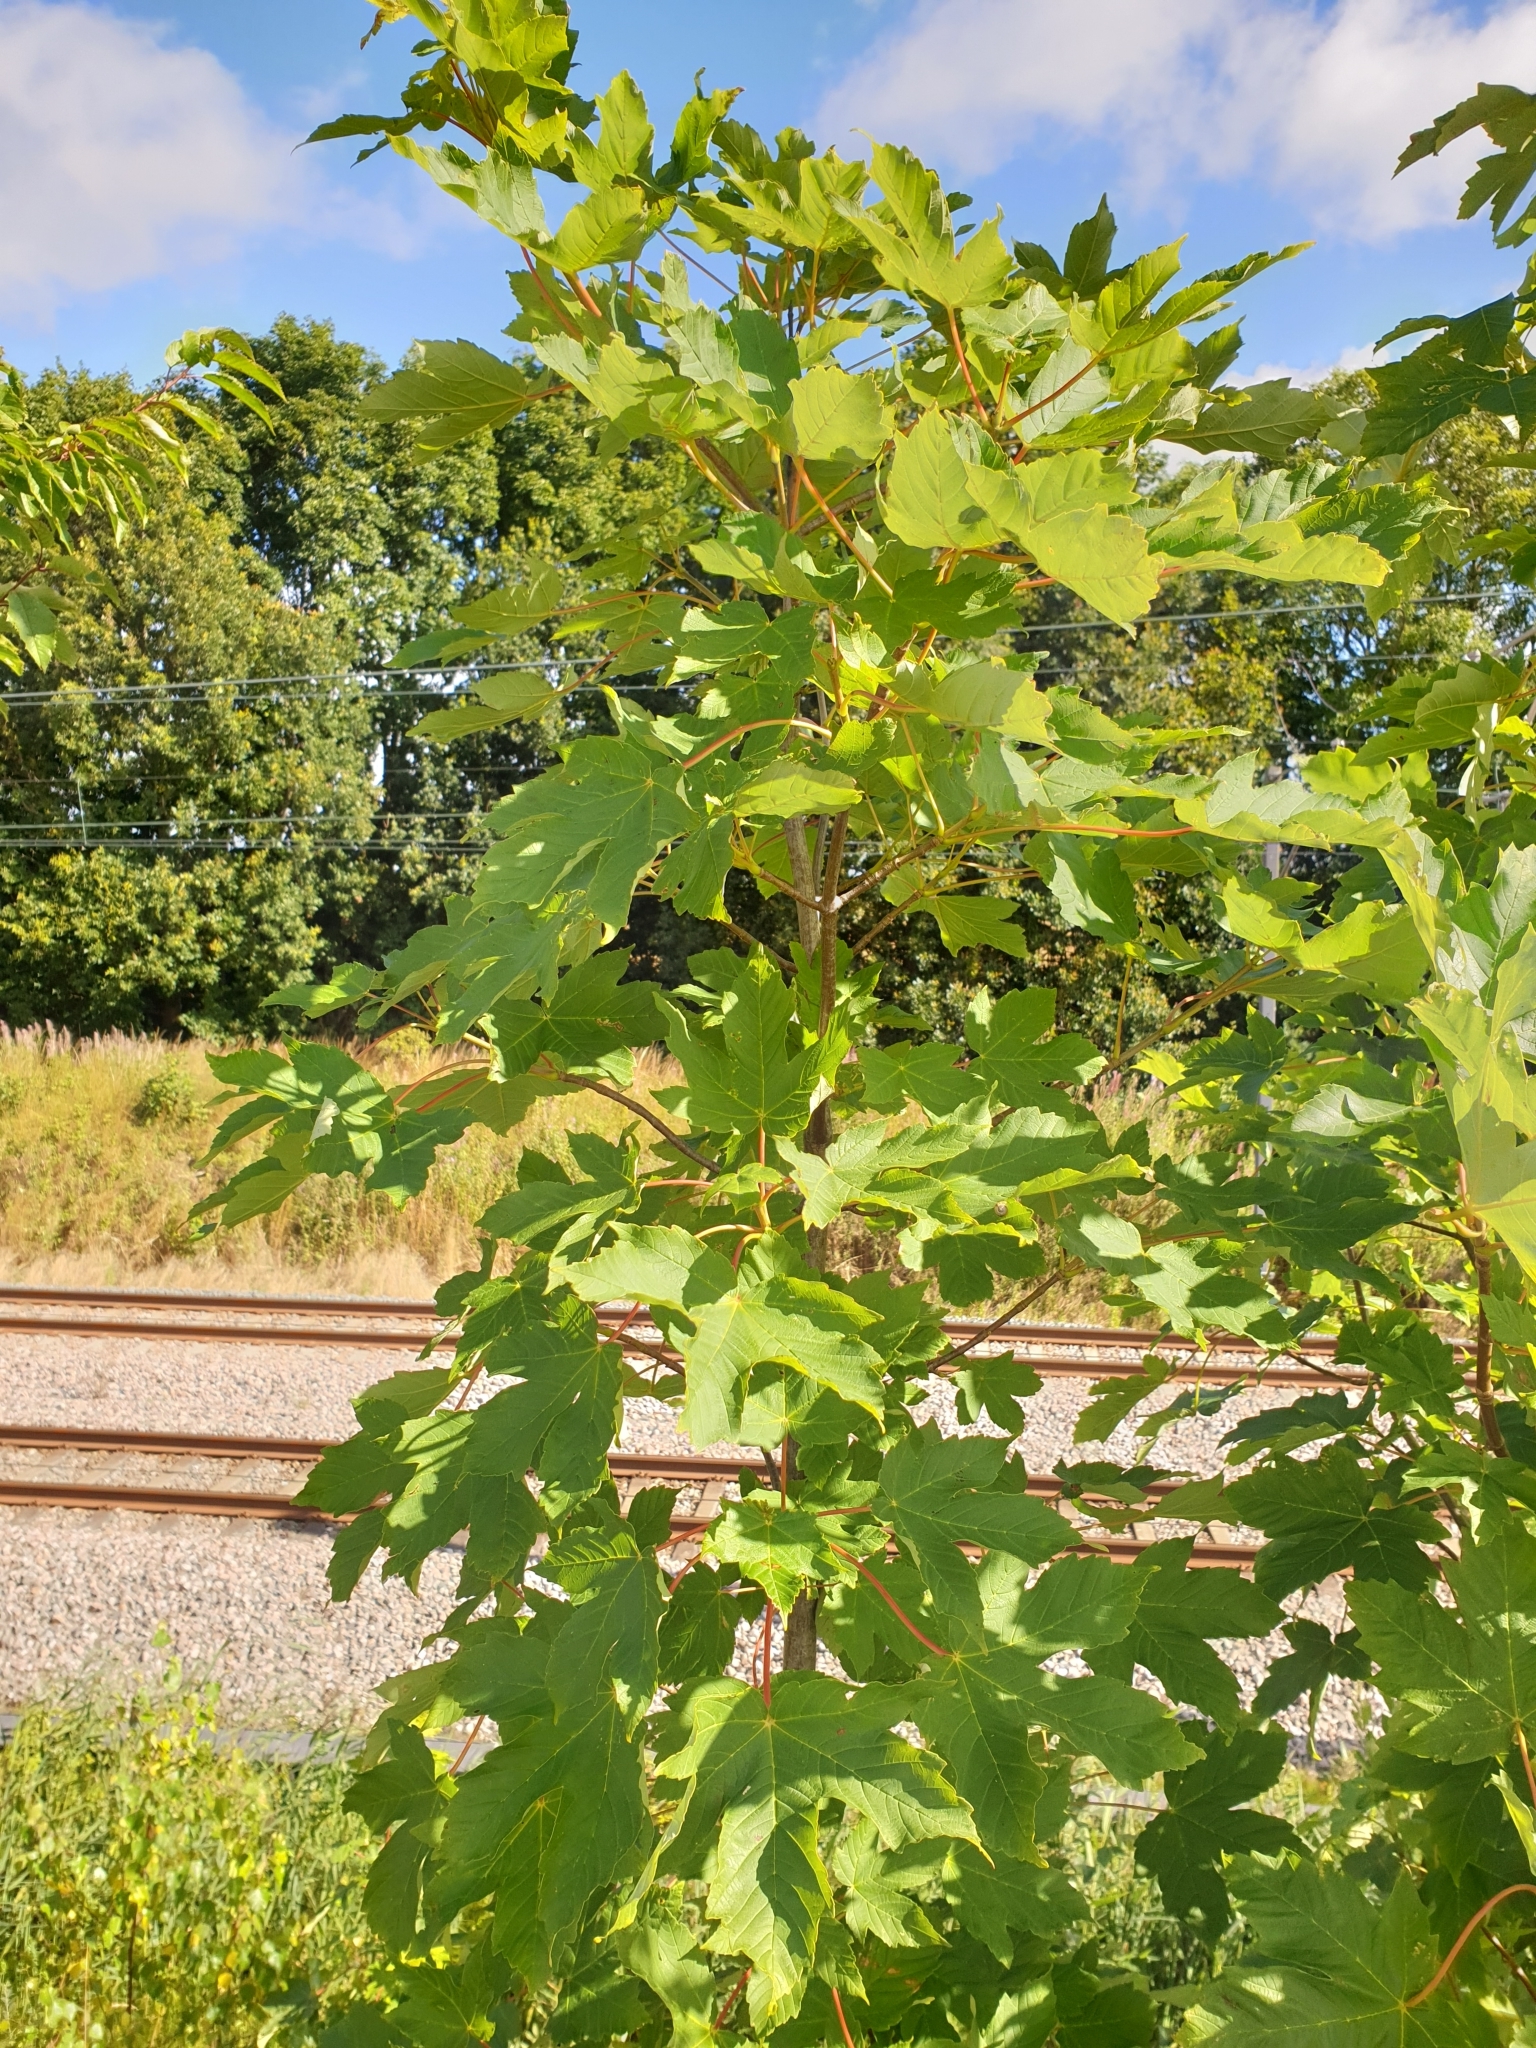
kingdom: Plantae
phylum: Tracheophyta
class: Magnoliopsida
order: Sapindales
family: Sapindaceae
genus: Acer
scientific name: Acer pseudoplatanus
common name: Sycamore
